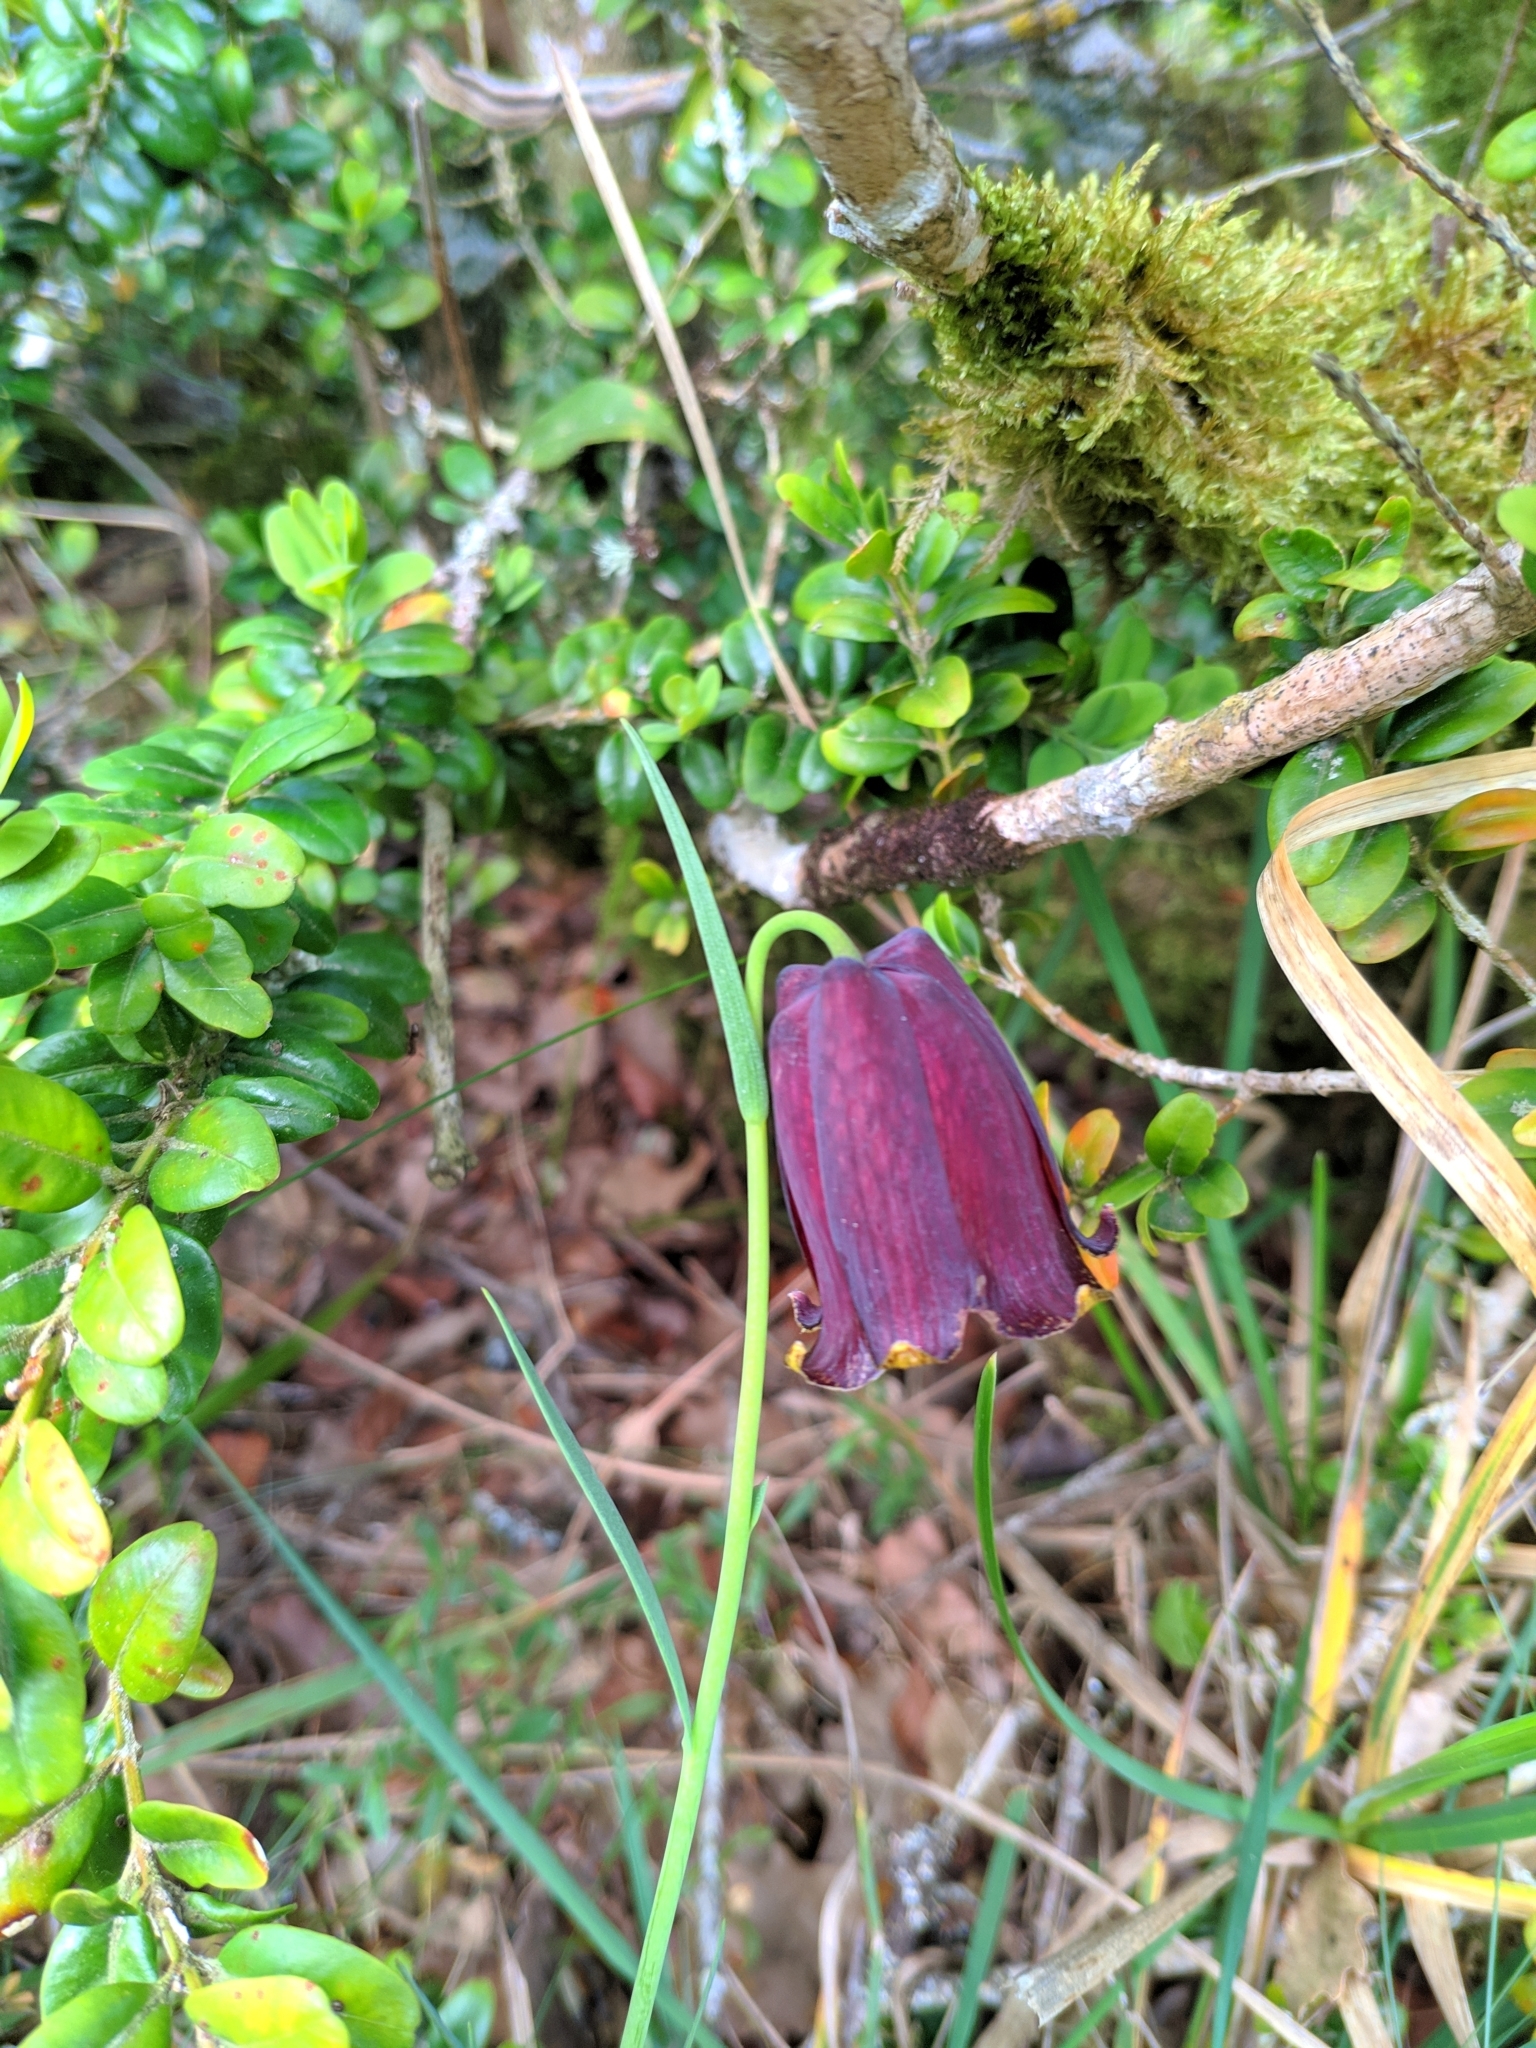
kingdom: Plantae
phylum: Tracheophyta
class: Liliopsida
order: Liliales
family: Liliaceae
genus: Fritillaria
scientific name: Fritillaria pyrenaica
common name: Pyrenean snake's-head
